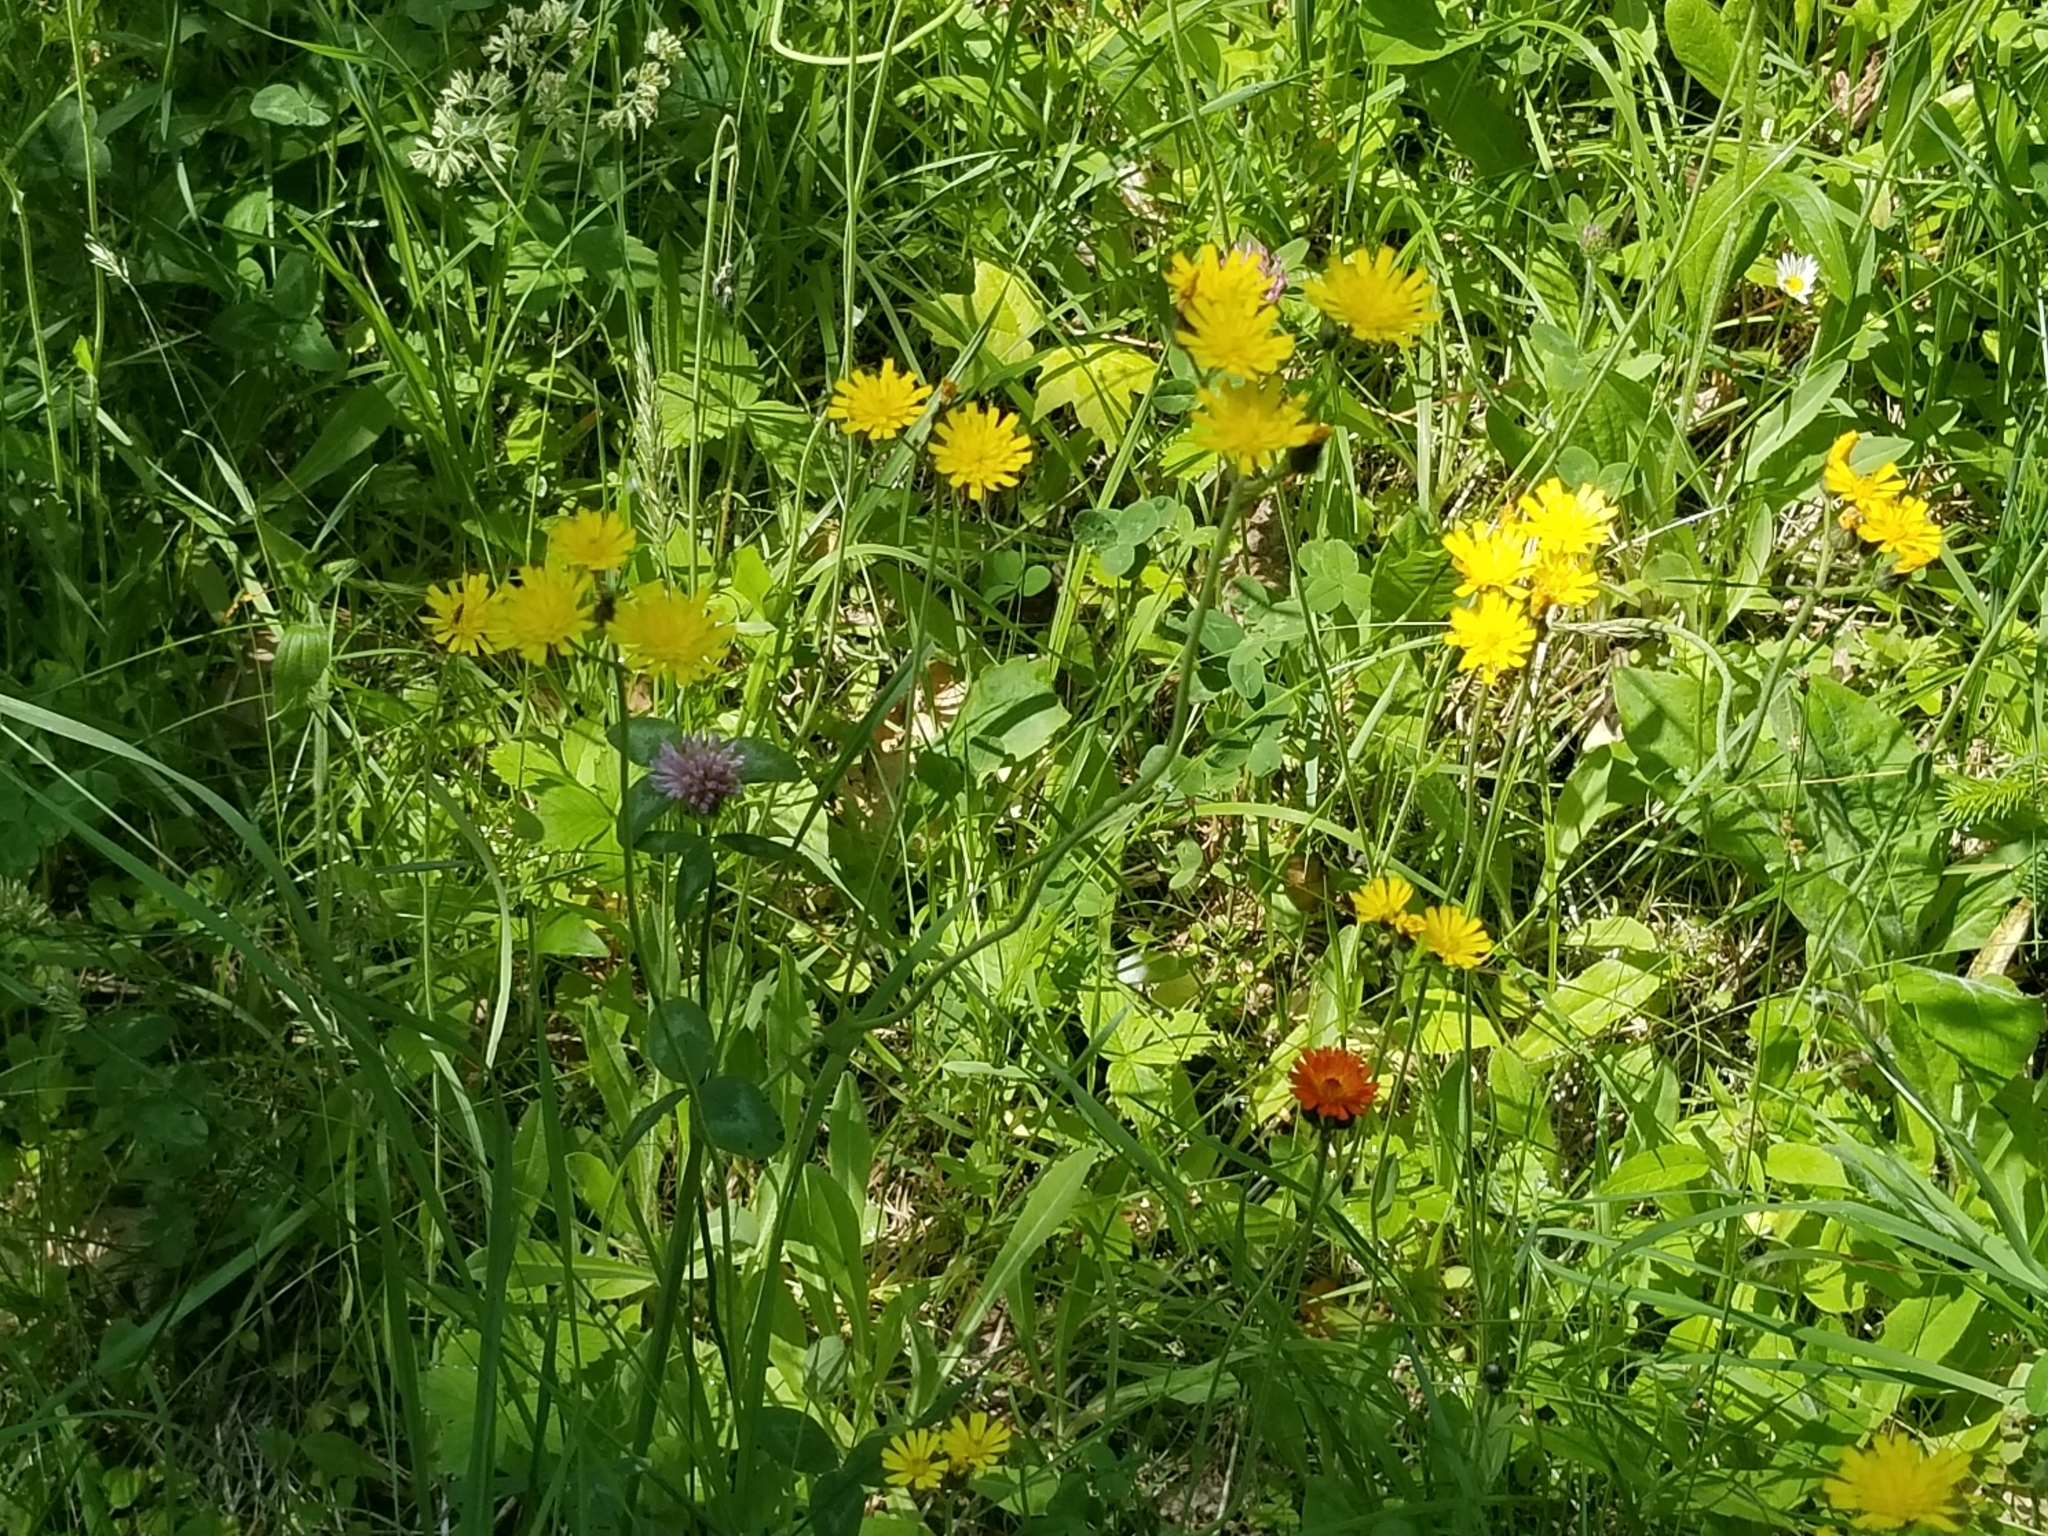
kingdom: Plantae
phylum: Tracheophyta
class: Magnoliopsida
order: Asterales
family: Asteraceae
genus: Pilosella
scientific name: Pilosella caespitosa
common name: Yellow fox-and-cubs
